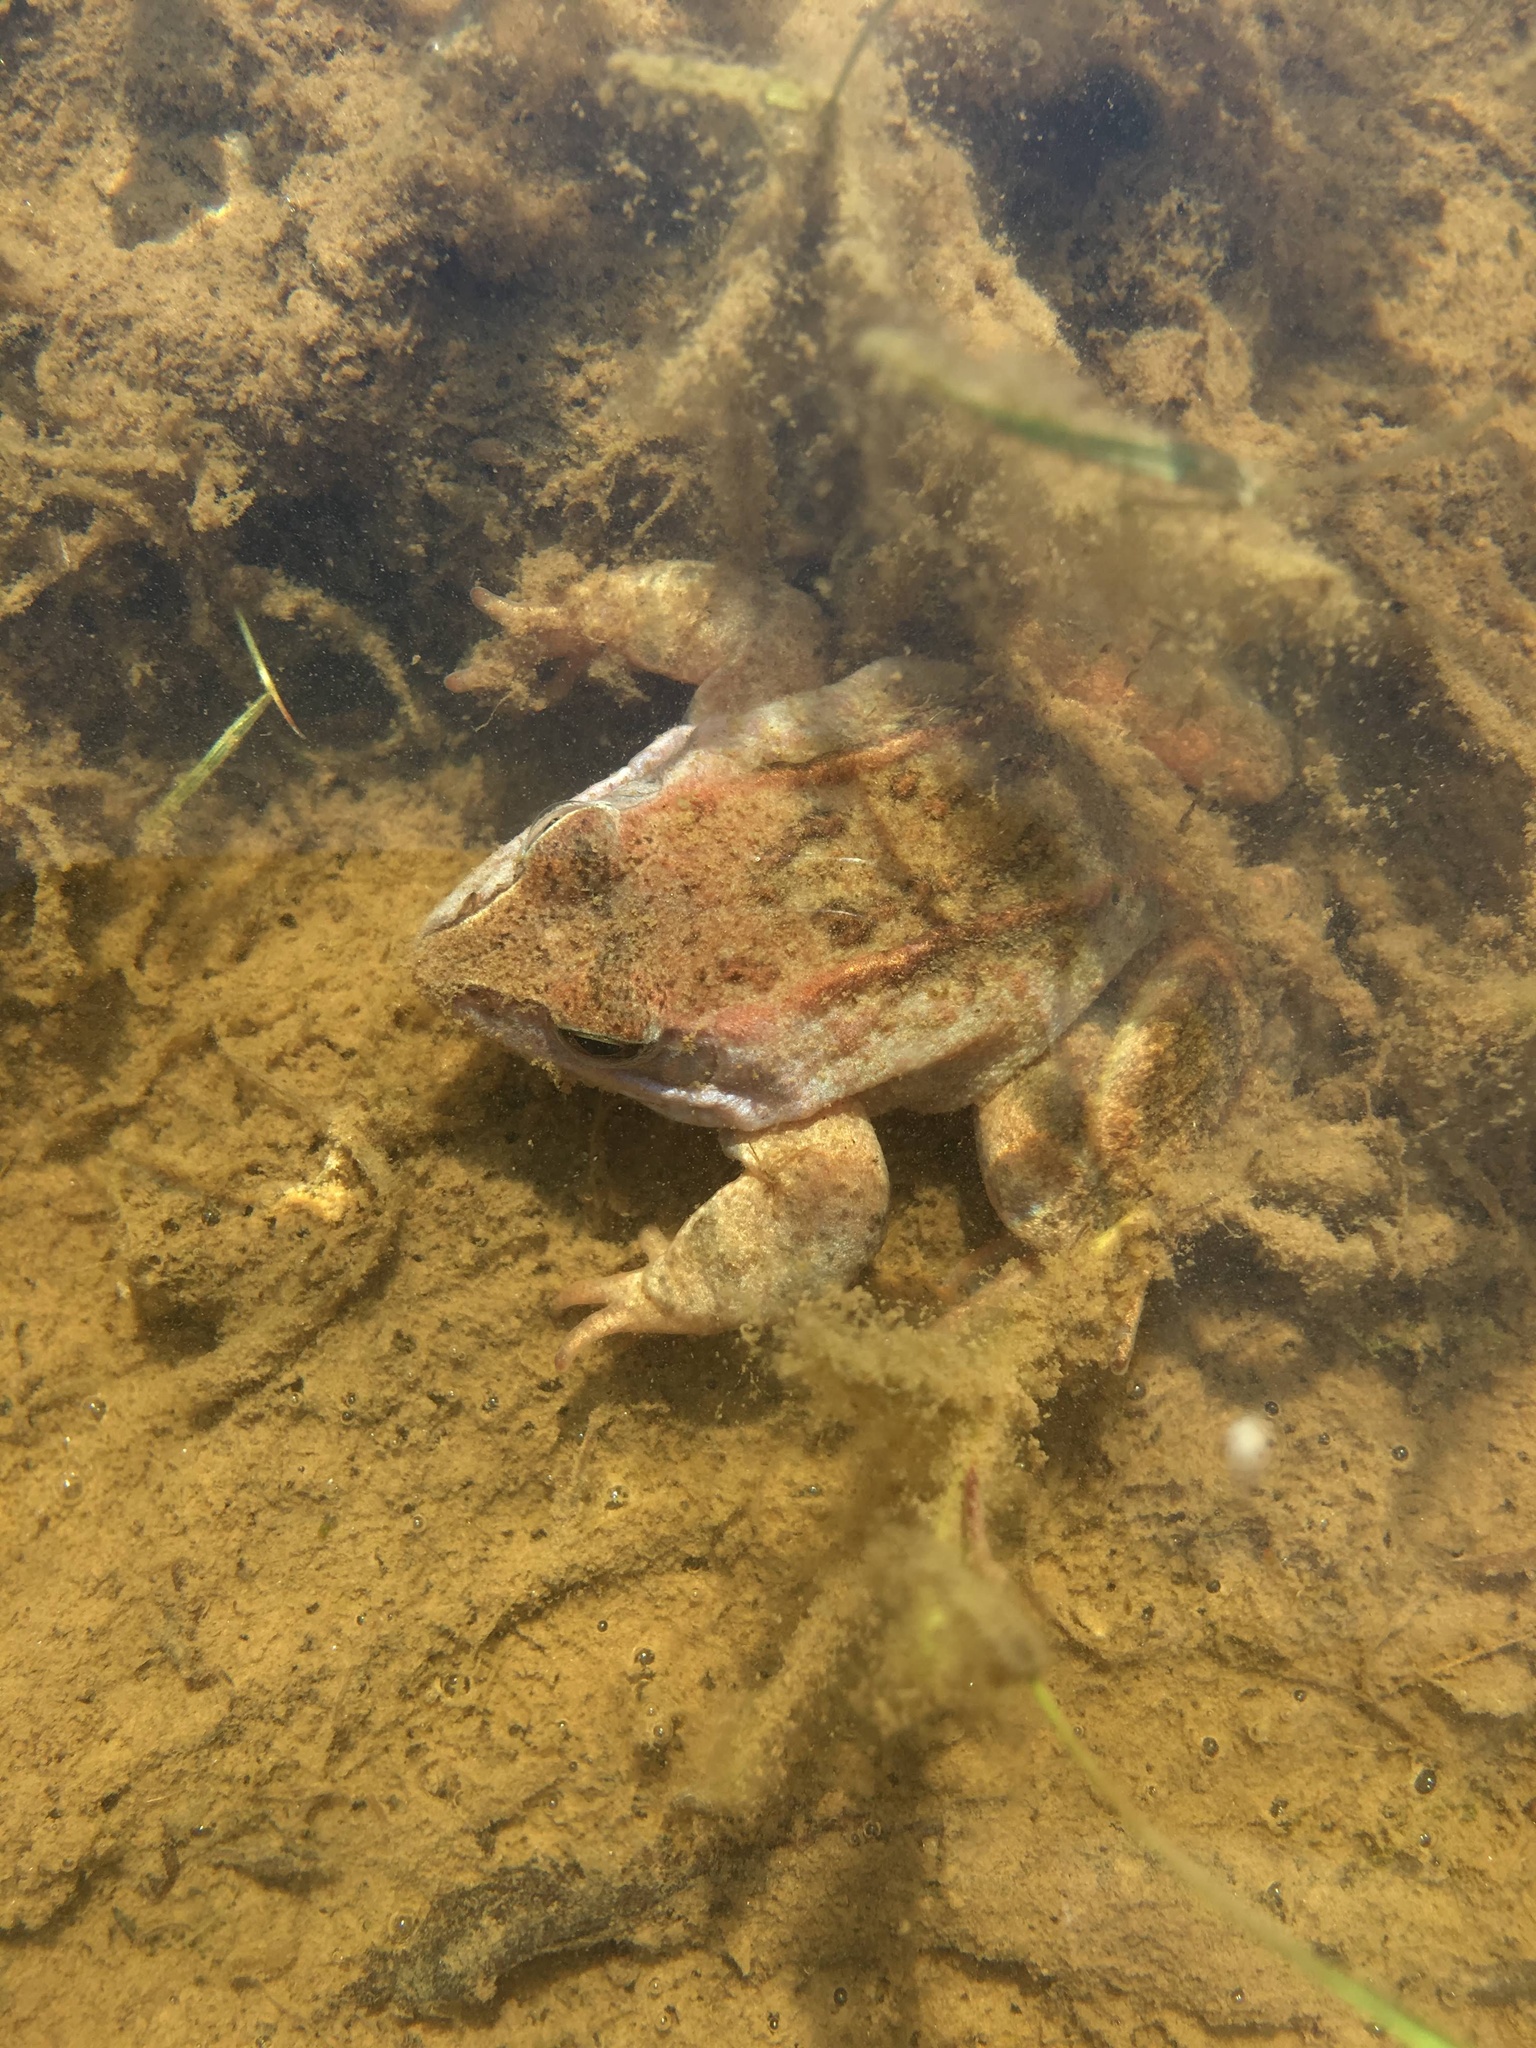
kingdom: Animalia
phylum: Chordata
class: Amphibia
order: Anura
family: Ranidae
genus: Rana
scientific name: Rana arvalis
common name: Moor frog
